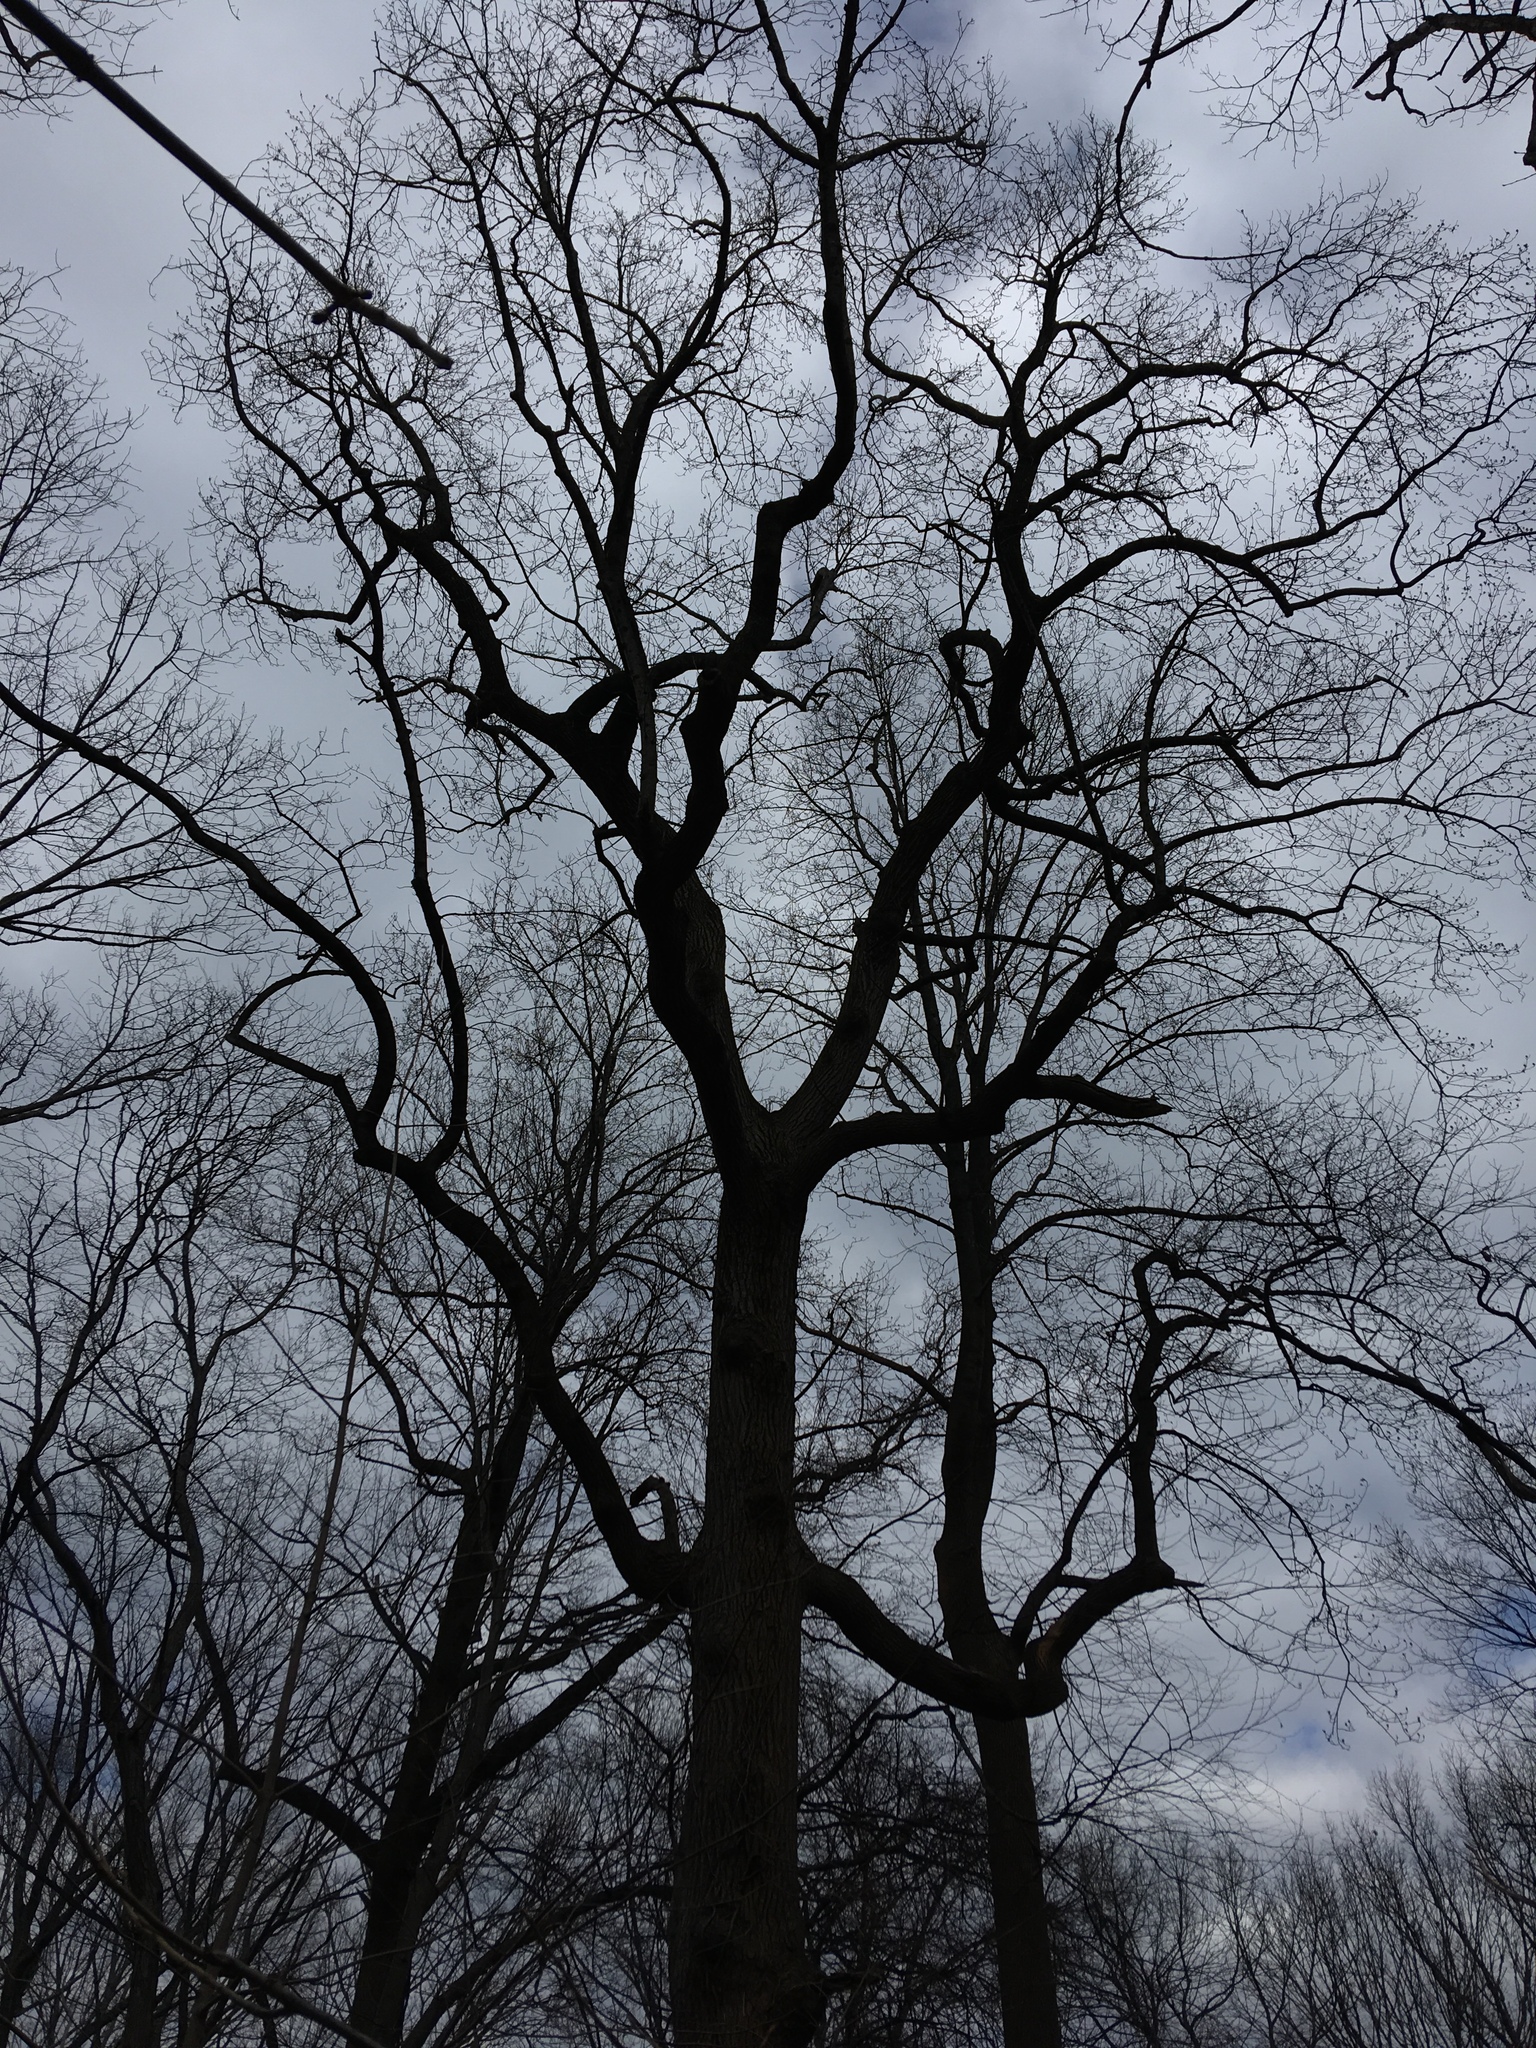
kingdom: Plantae
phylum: Tracheophyta
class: Magnoliopsida
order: Magnoliales
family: Magnoliaceae
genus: Liriodendron
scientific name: Liriodendron tulipifera
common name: Tulip tree
